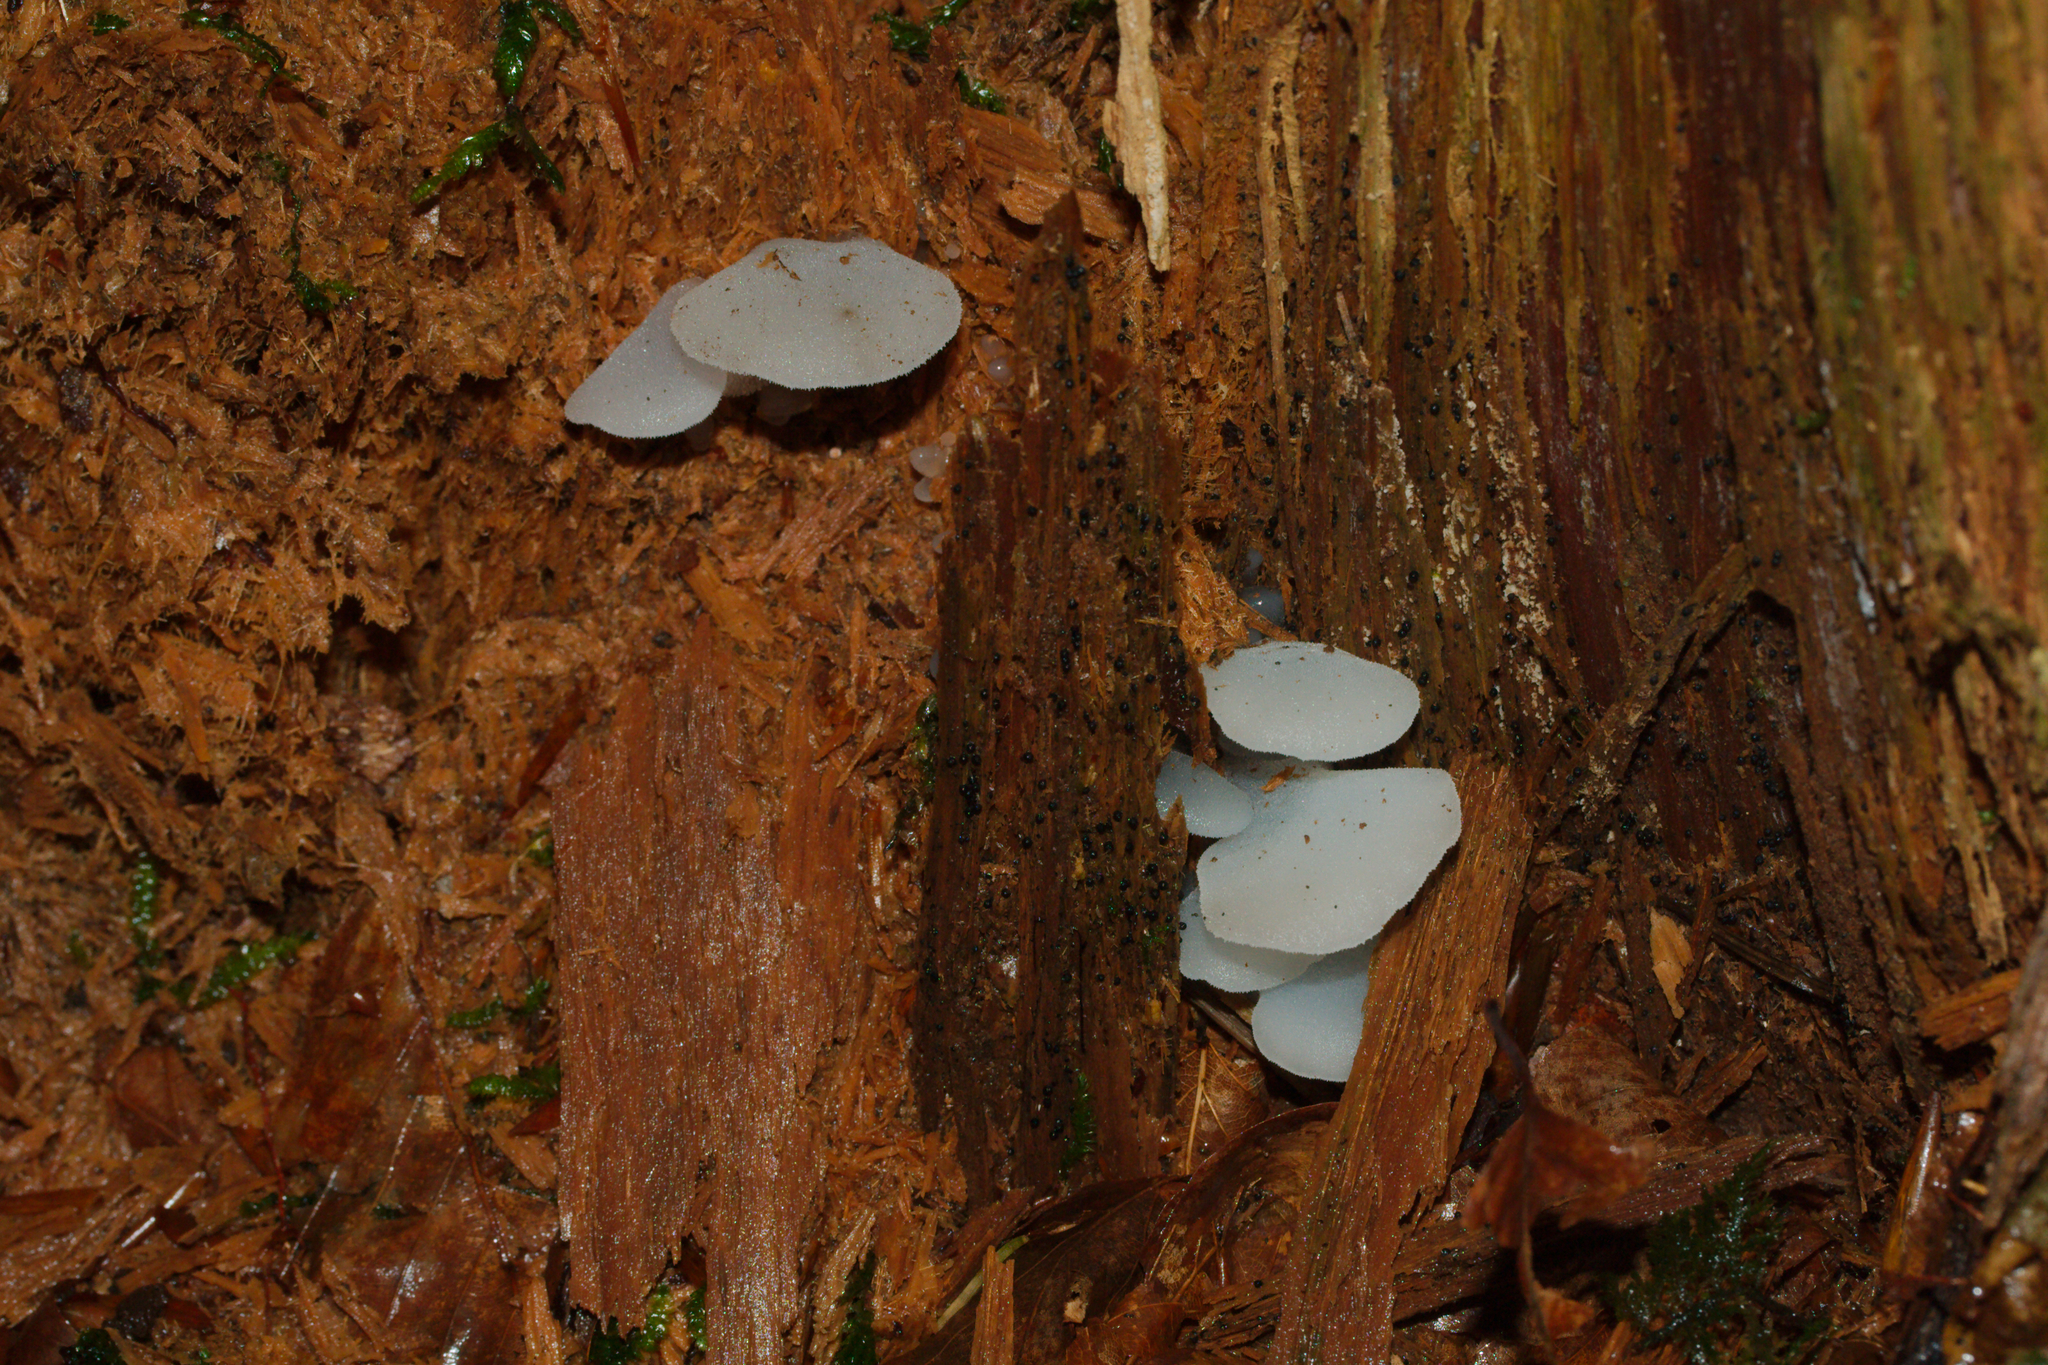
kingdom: Fungi
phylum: Basidiomycota
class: Agaricomycetes
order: Auriculariales
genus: Pseudohydnum
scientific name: Pseudohydnum gelatinosum
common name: Jelly tongue
